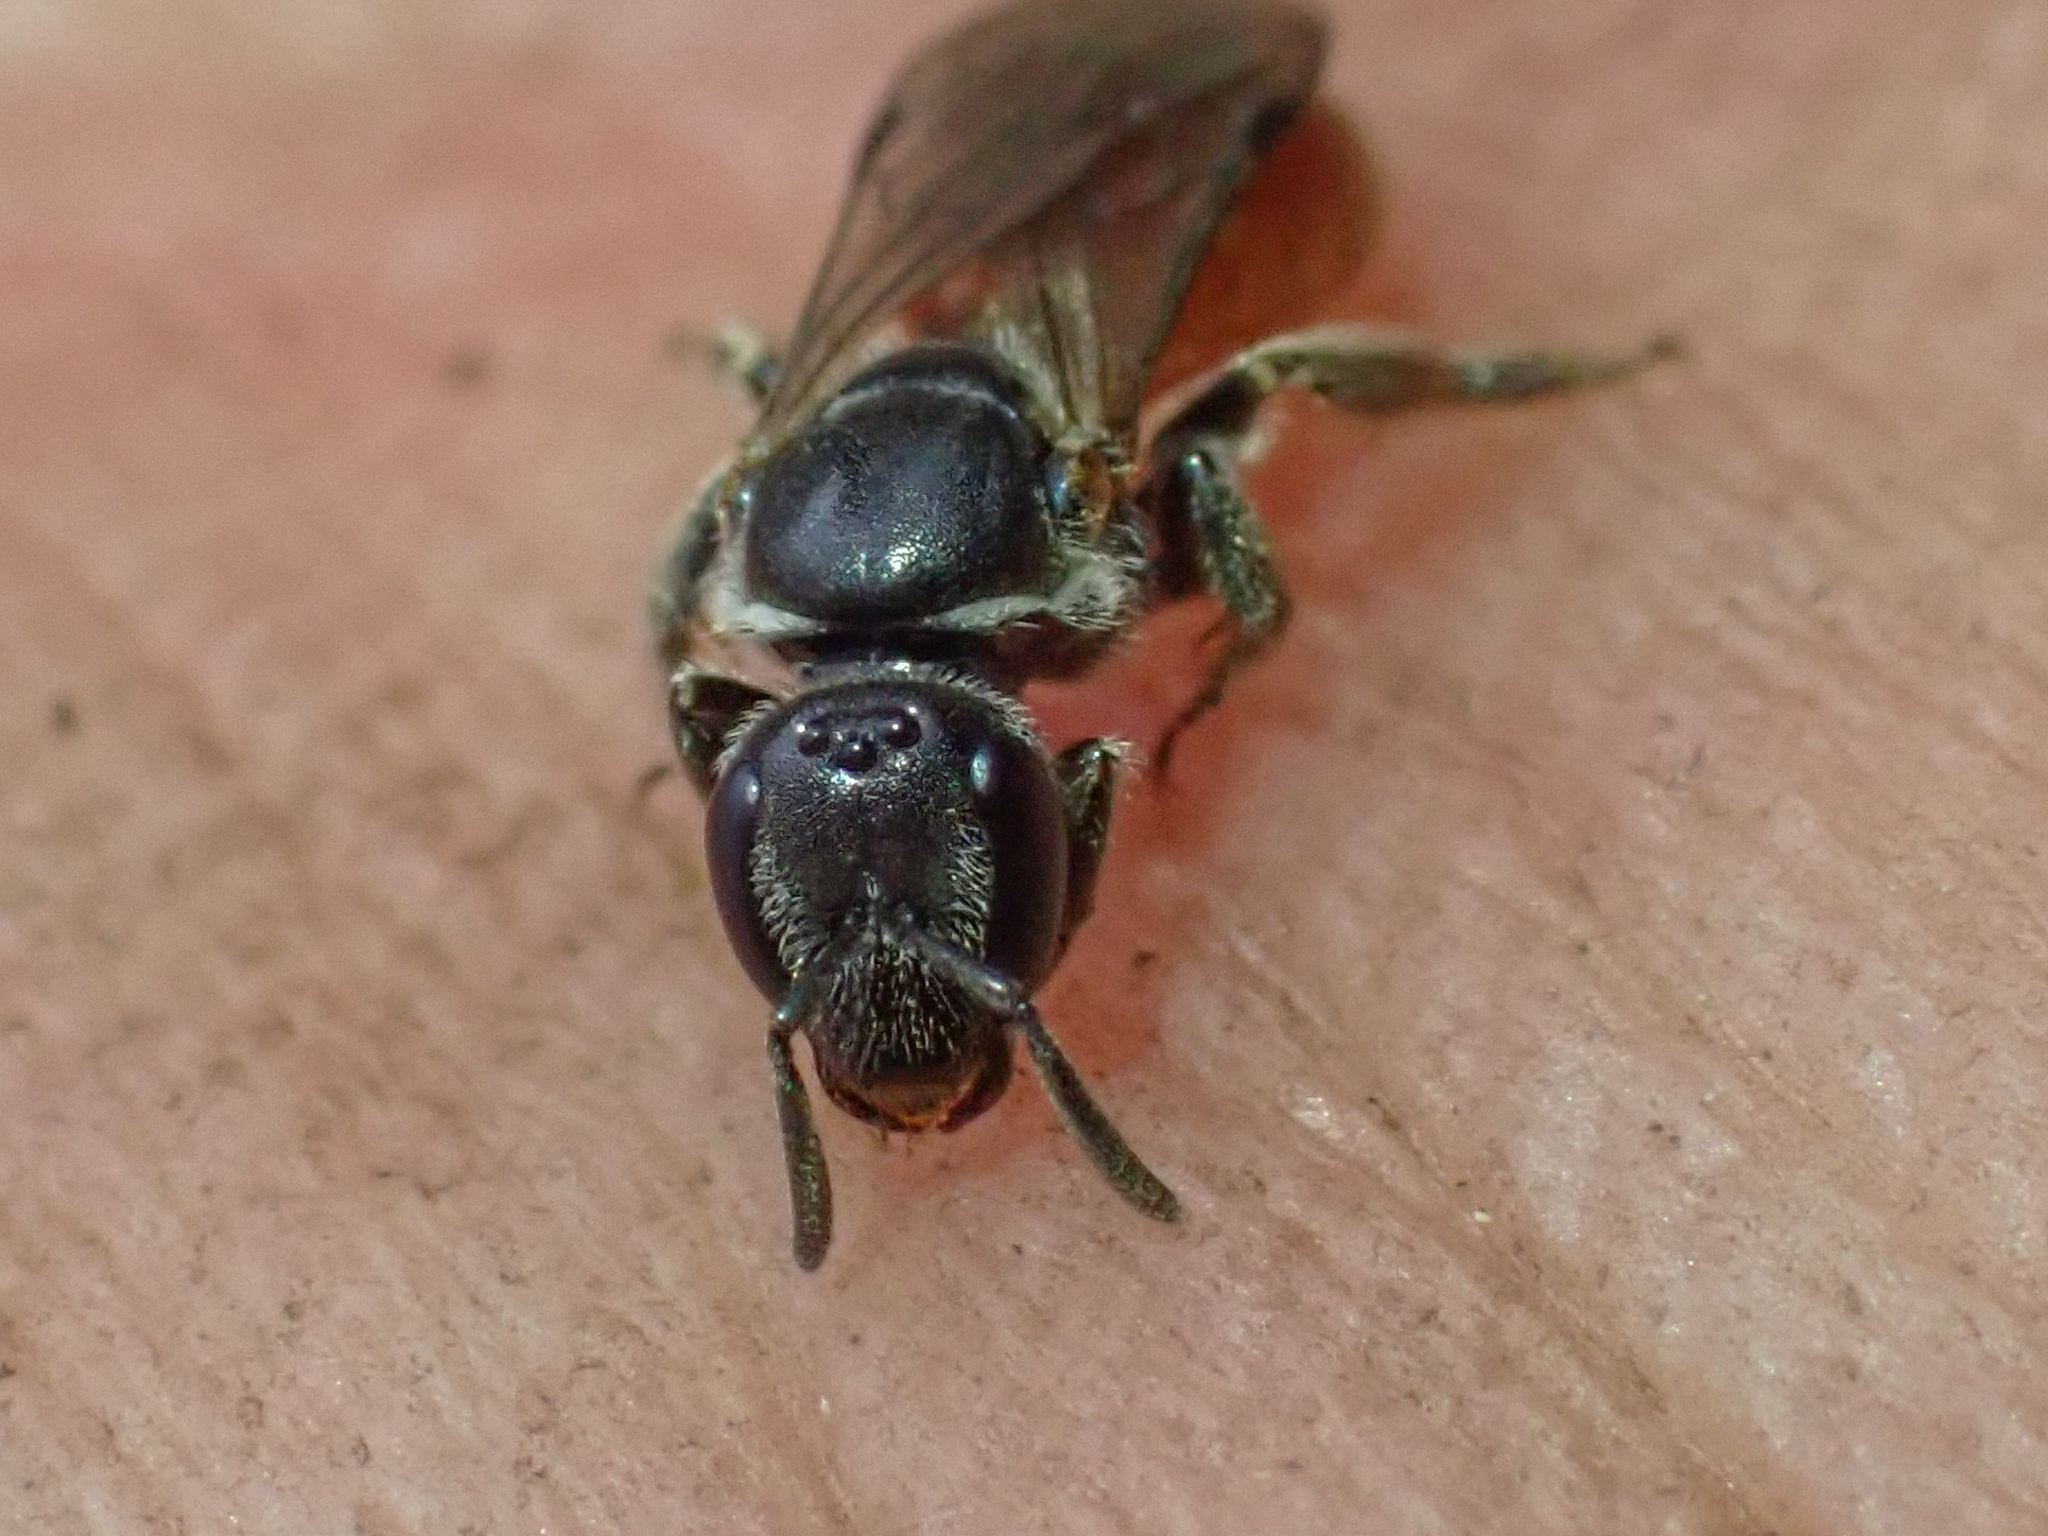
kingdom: Animalia
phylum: Arthropoda
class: Insecta
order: Hymenoptera
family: Halictidae
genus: Lasioglossum
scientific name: Lasioglossum ovaliceps
